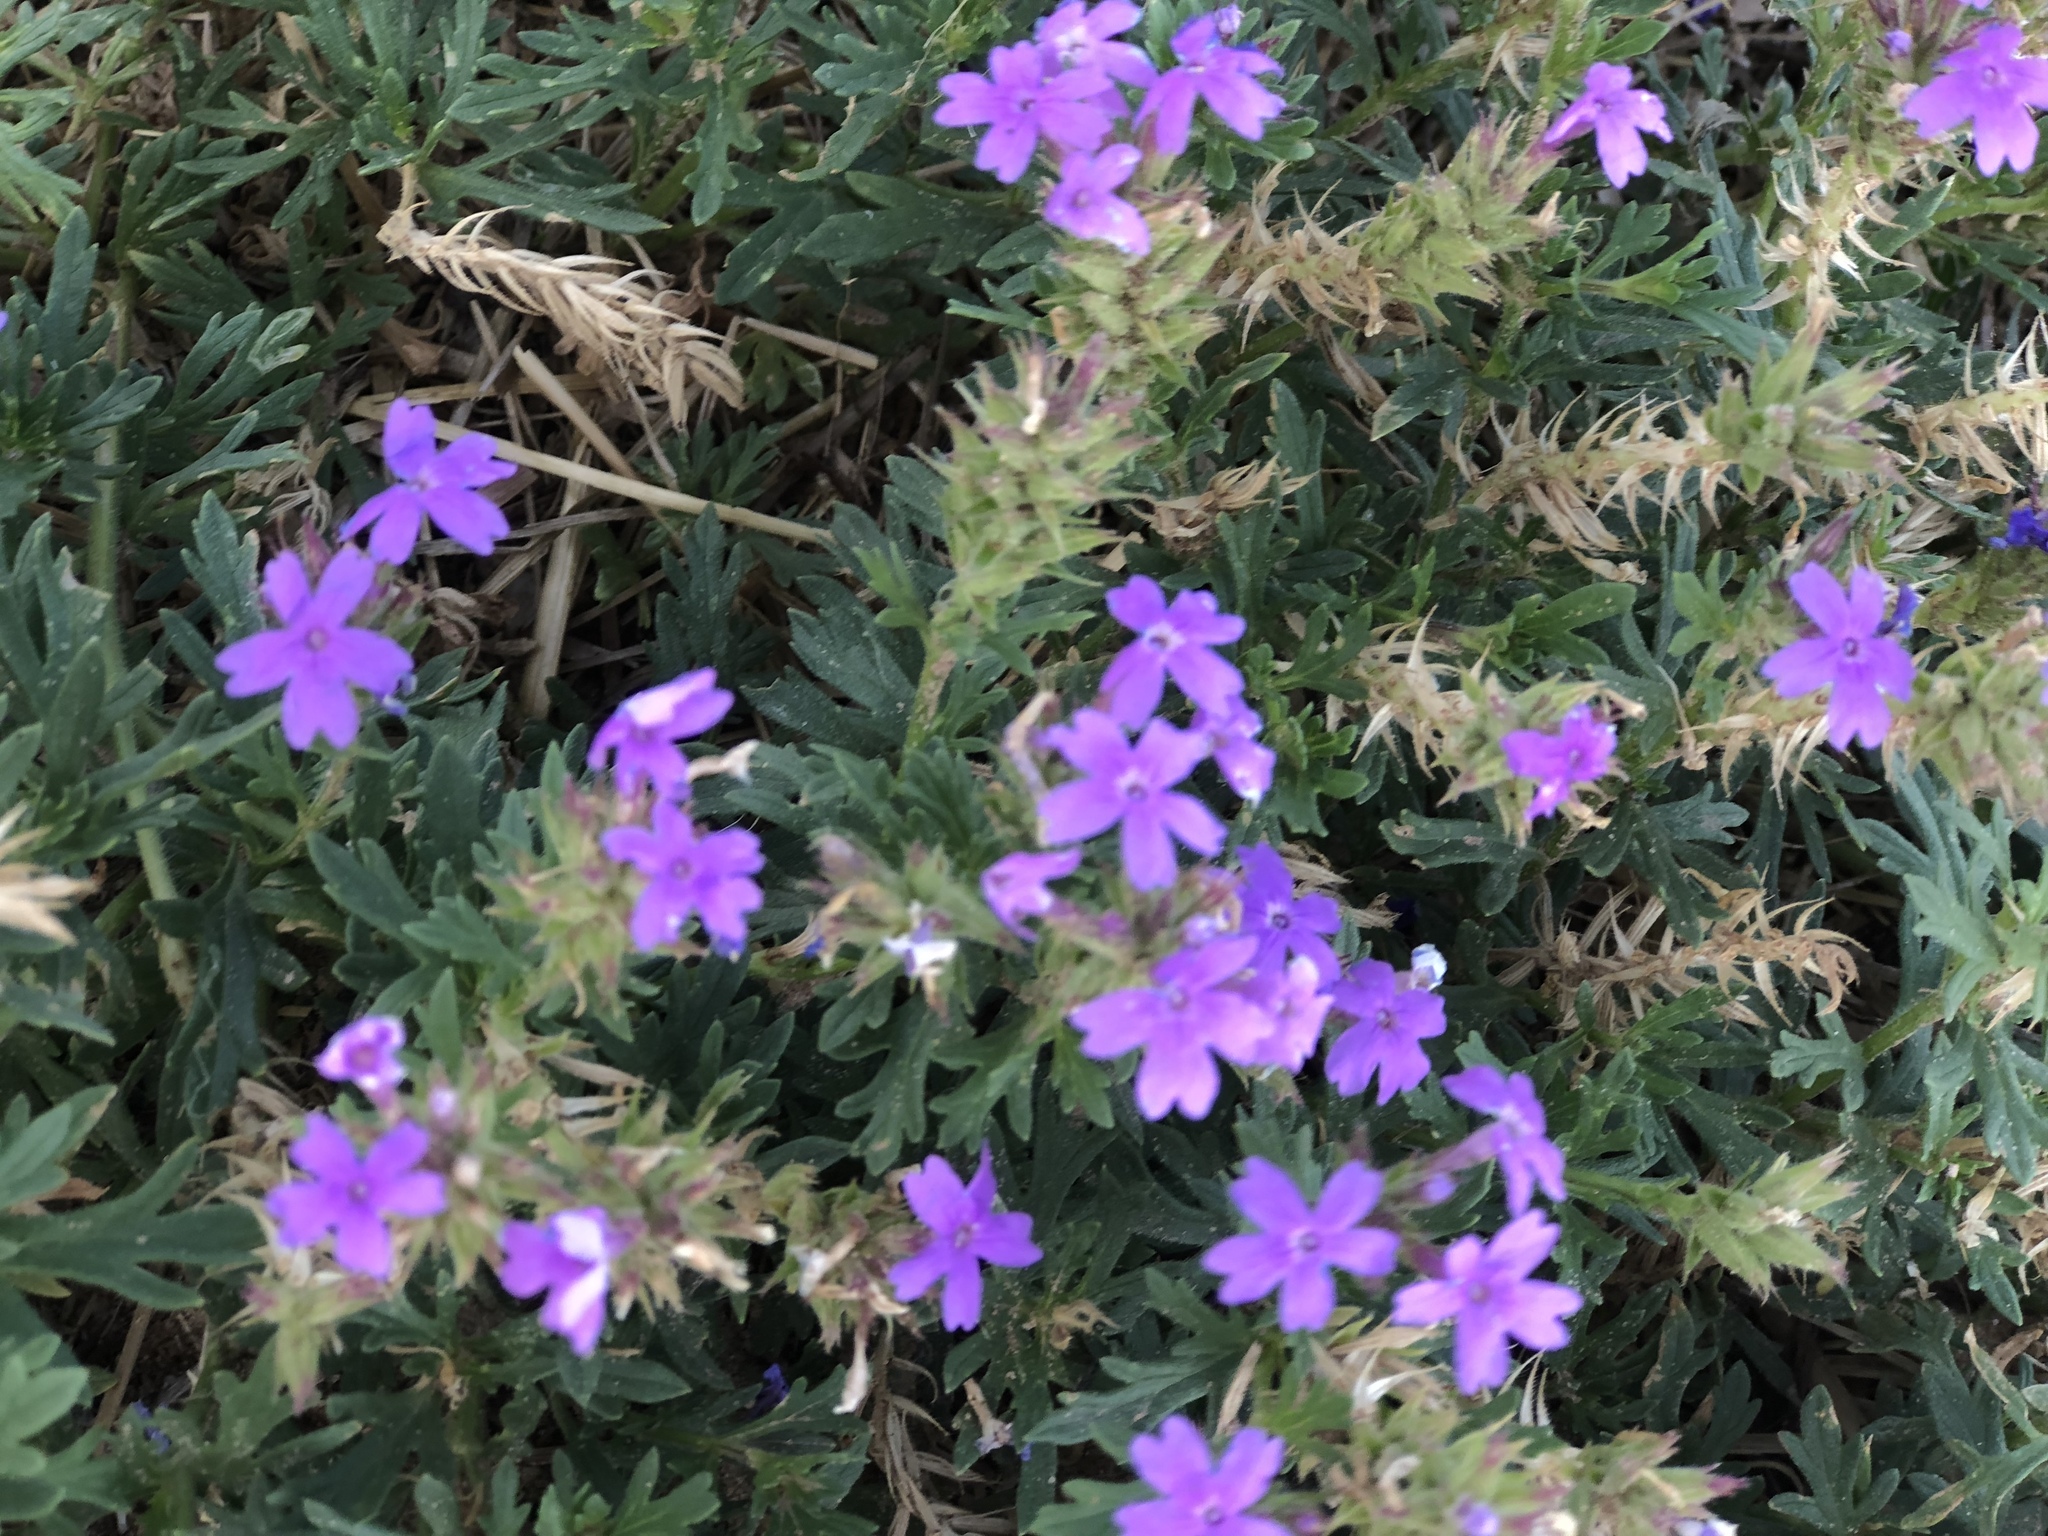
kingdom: Plantae
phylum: Tracheophyta
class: Magnoliopsida
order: Lamiales
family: Verbenaceae
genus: Verbena
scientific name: Verbena bipinnatifida
